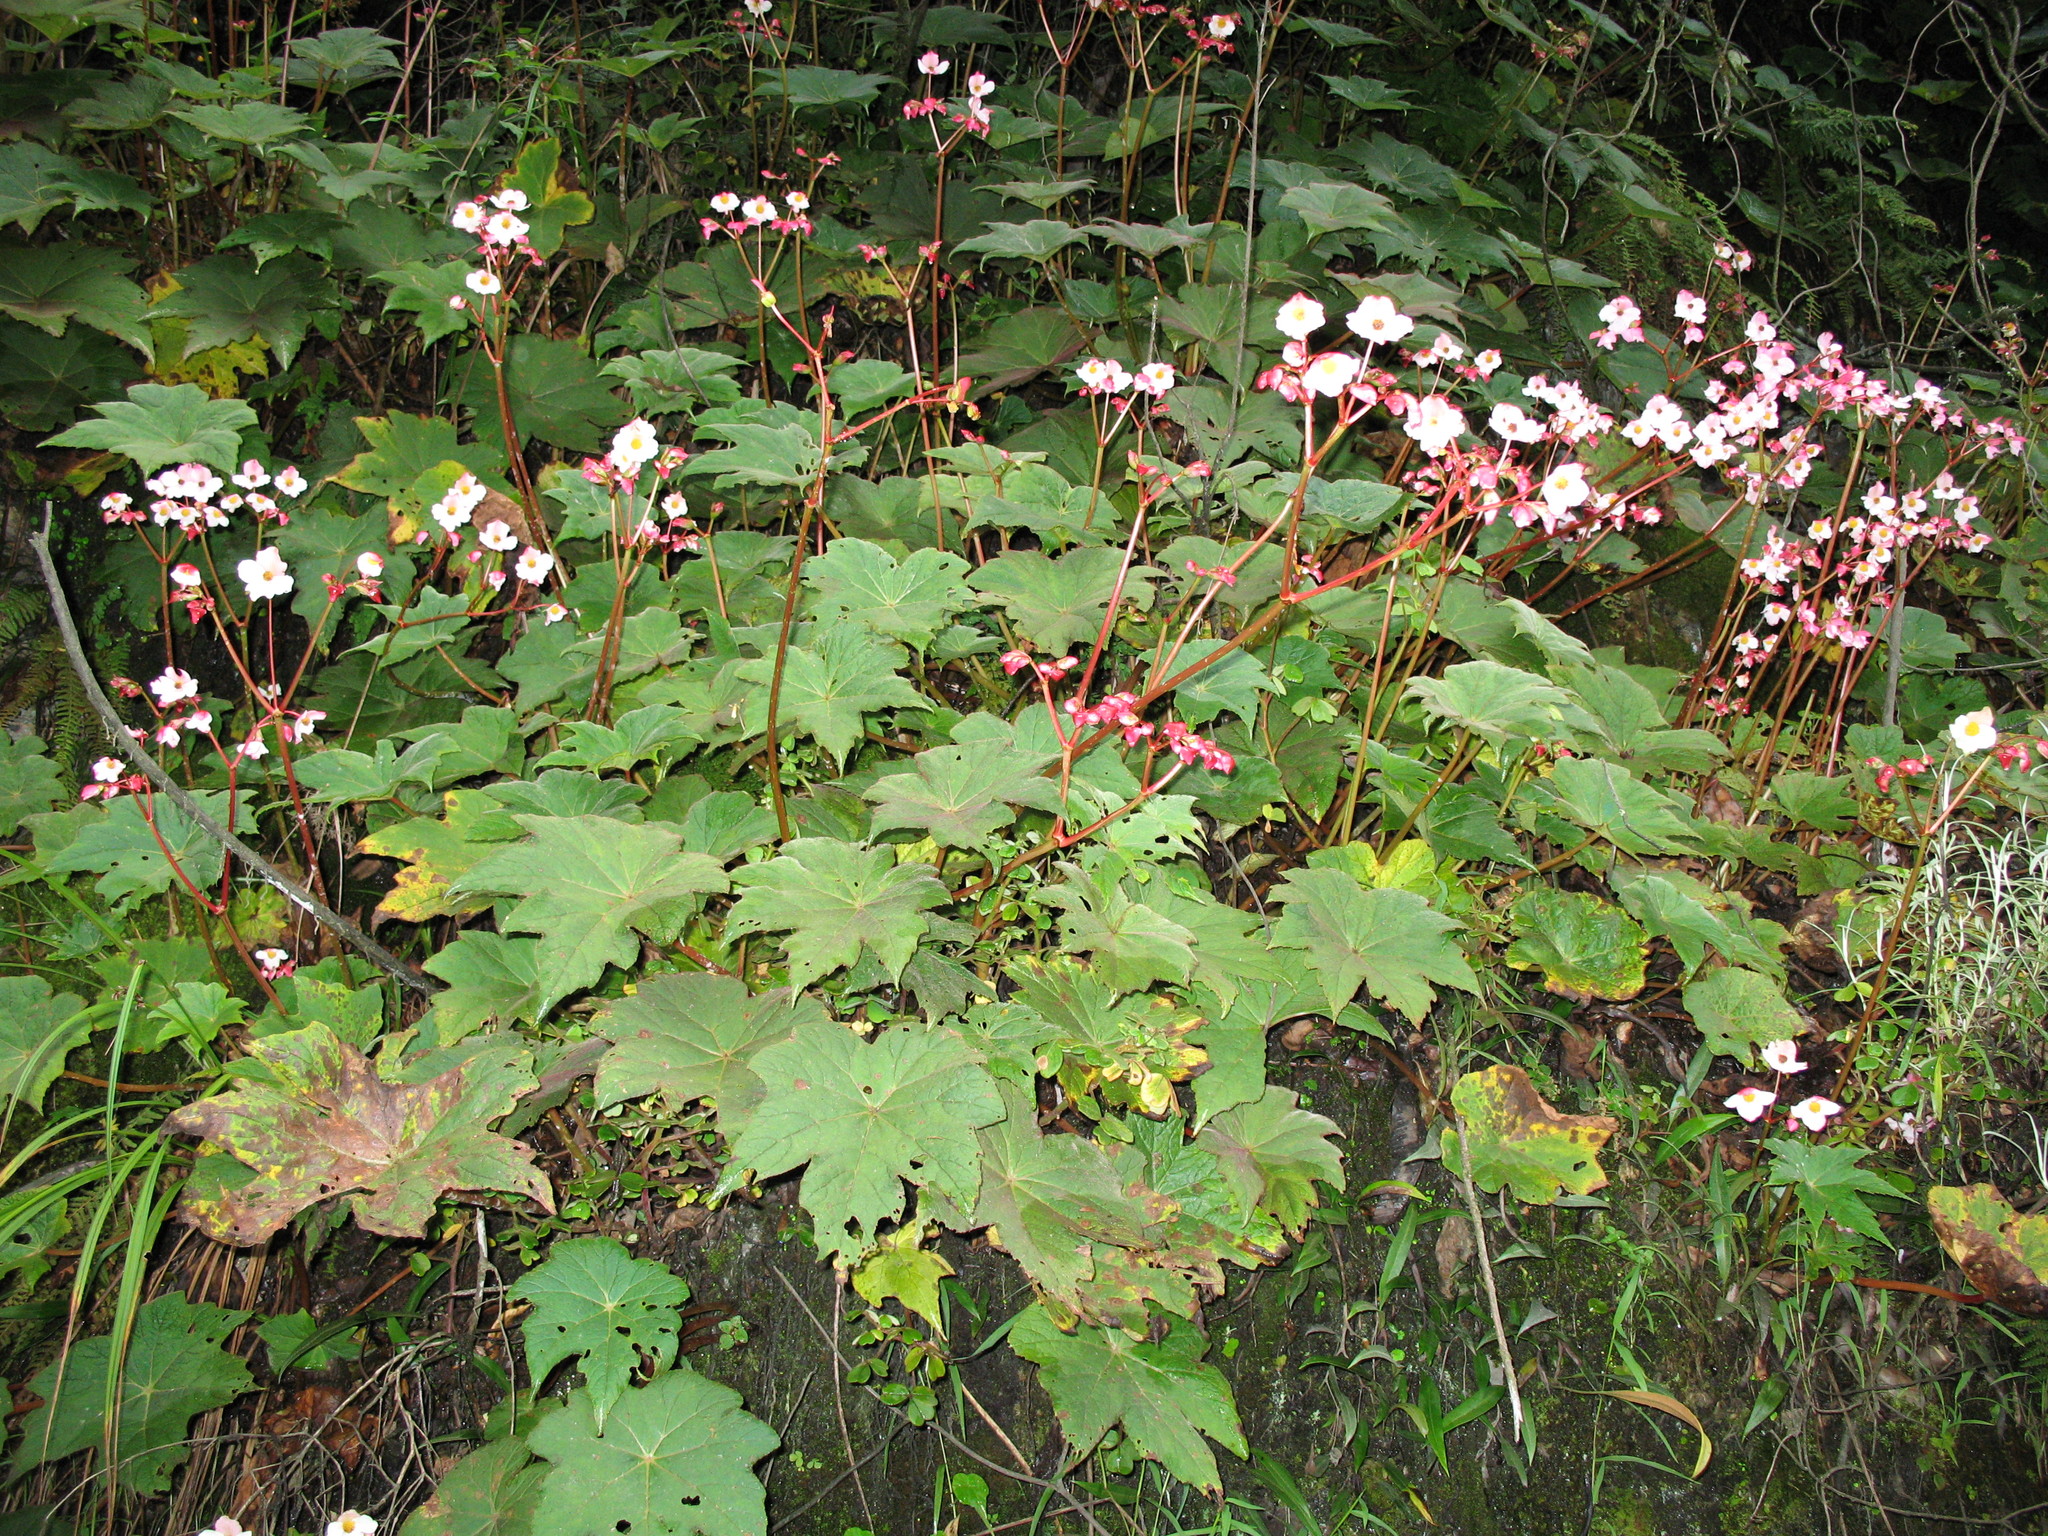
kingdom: Plantae
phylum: Tracheophyta
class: Magnoliopsida
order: Cucurbitales
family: Begoniaceae
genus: Begonia
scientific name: Begonia acerifolia
